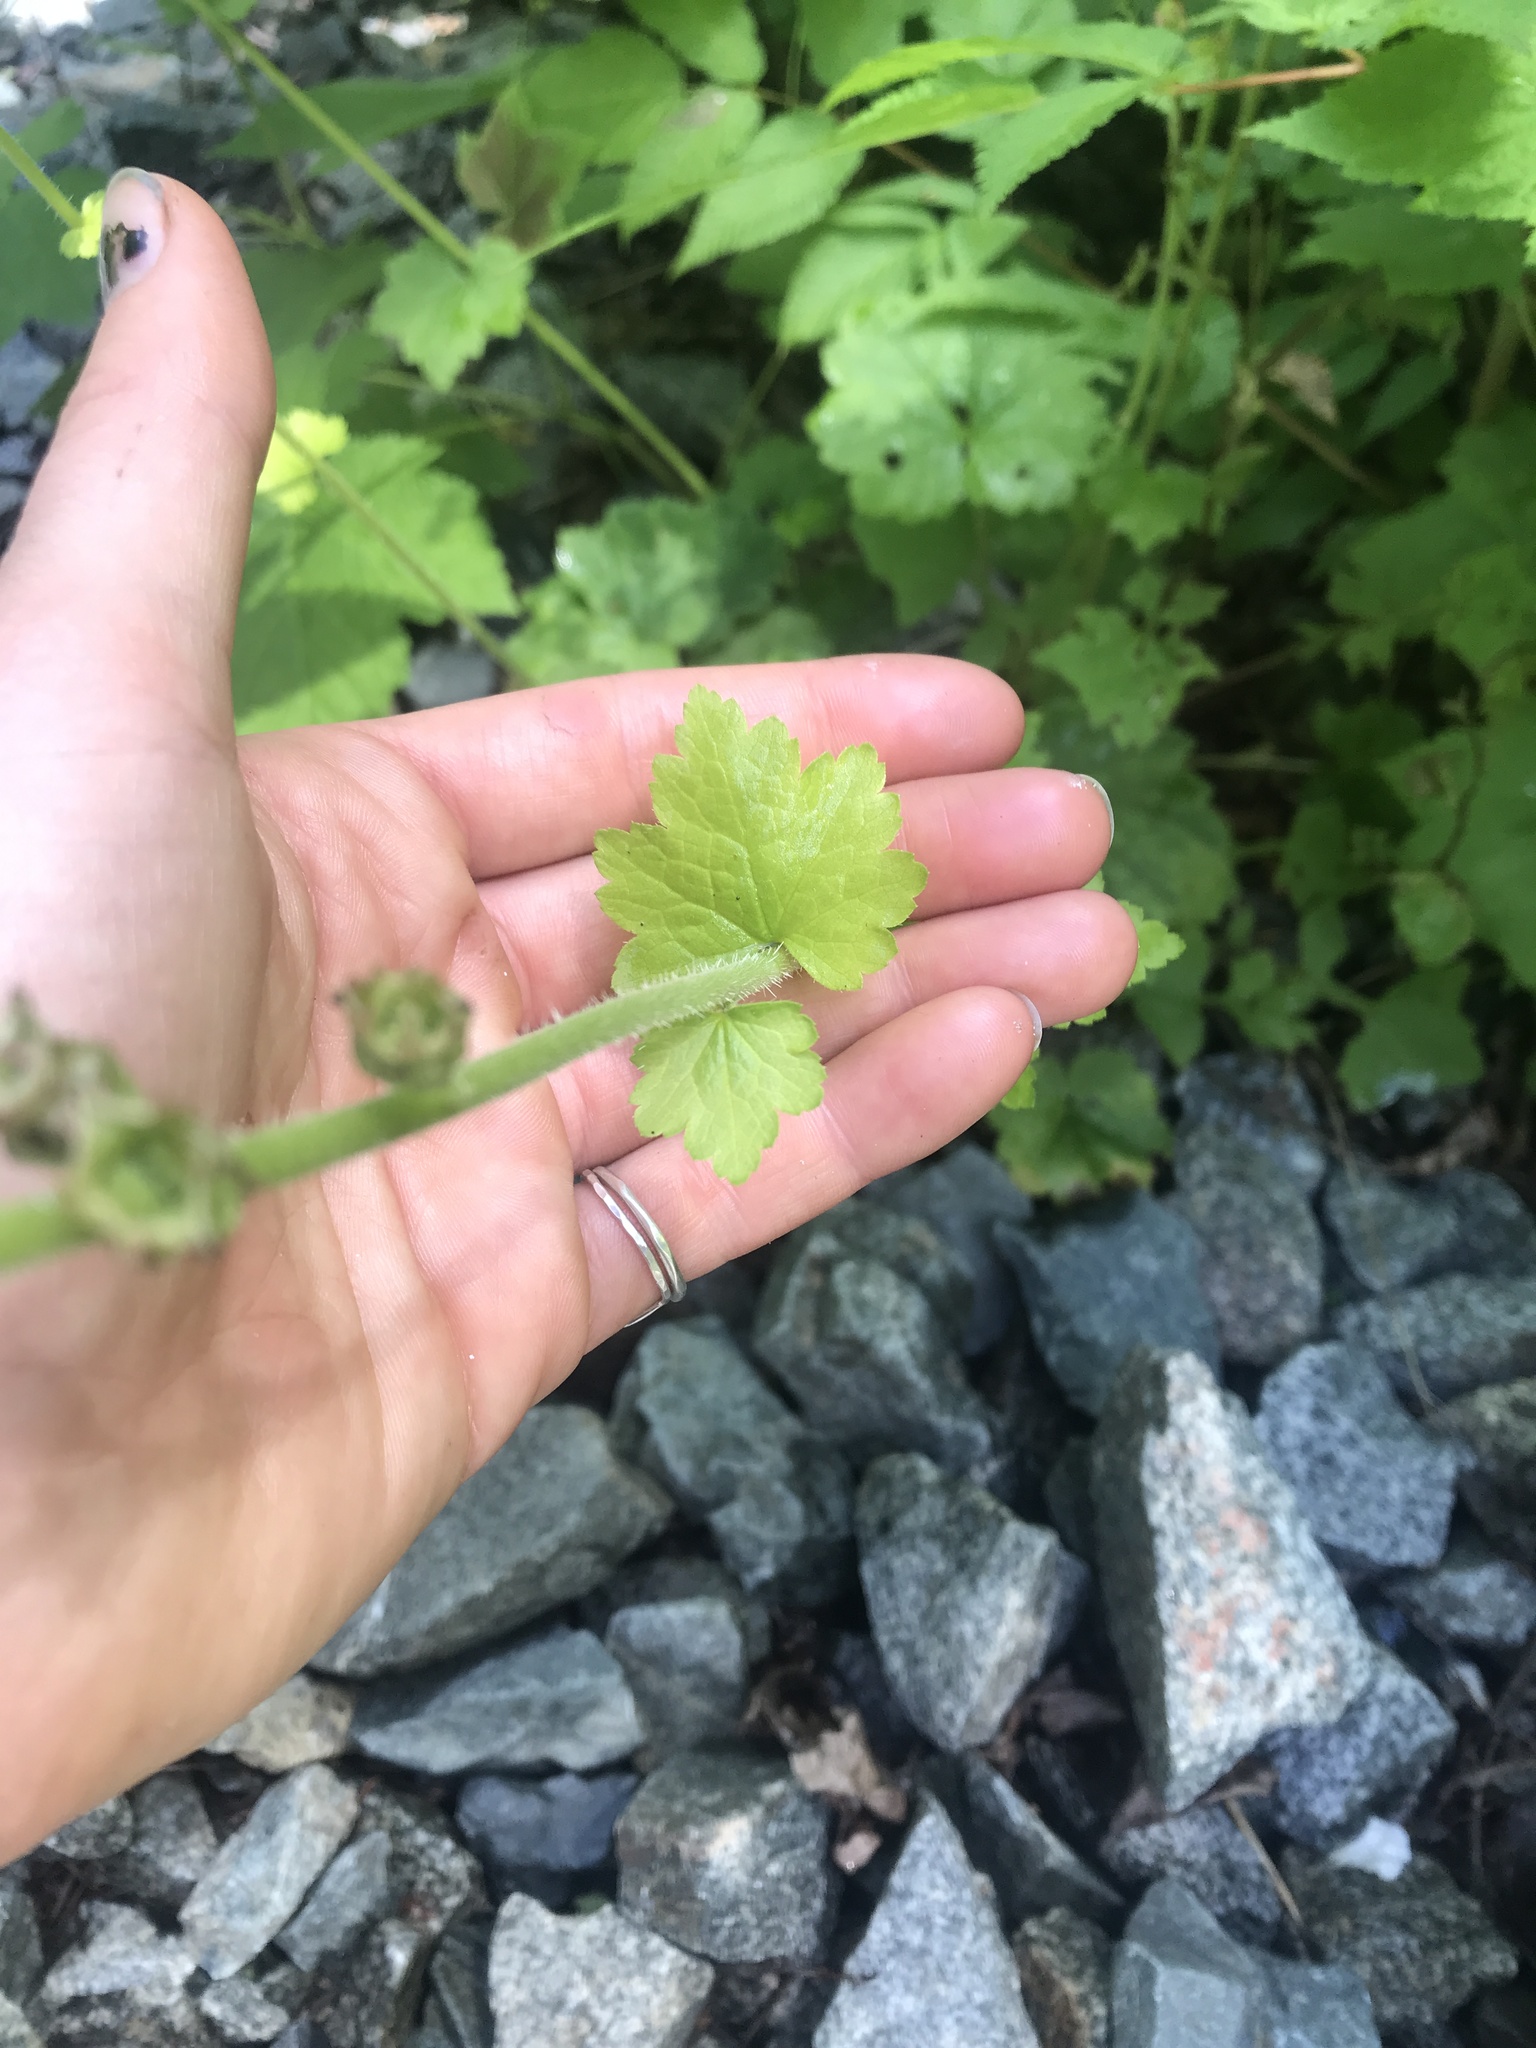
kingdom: Plantae
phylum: Tracheophyta
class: Magnoliopsida
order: Saxifragales
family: Saxifragaceae
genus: Tellima
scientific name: Tellima grandiflora
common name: Fringecups
